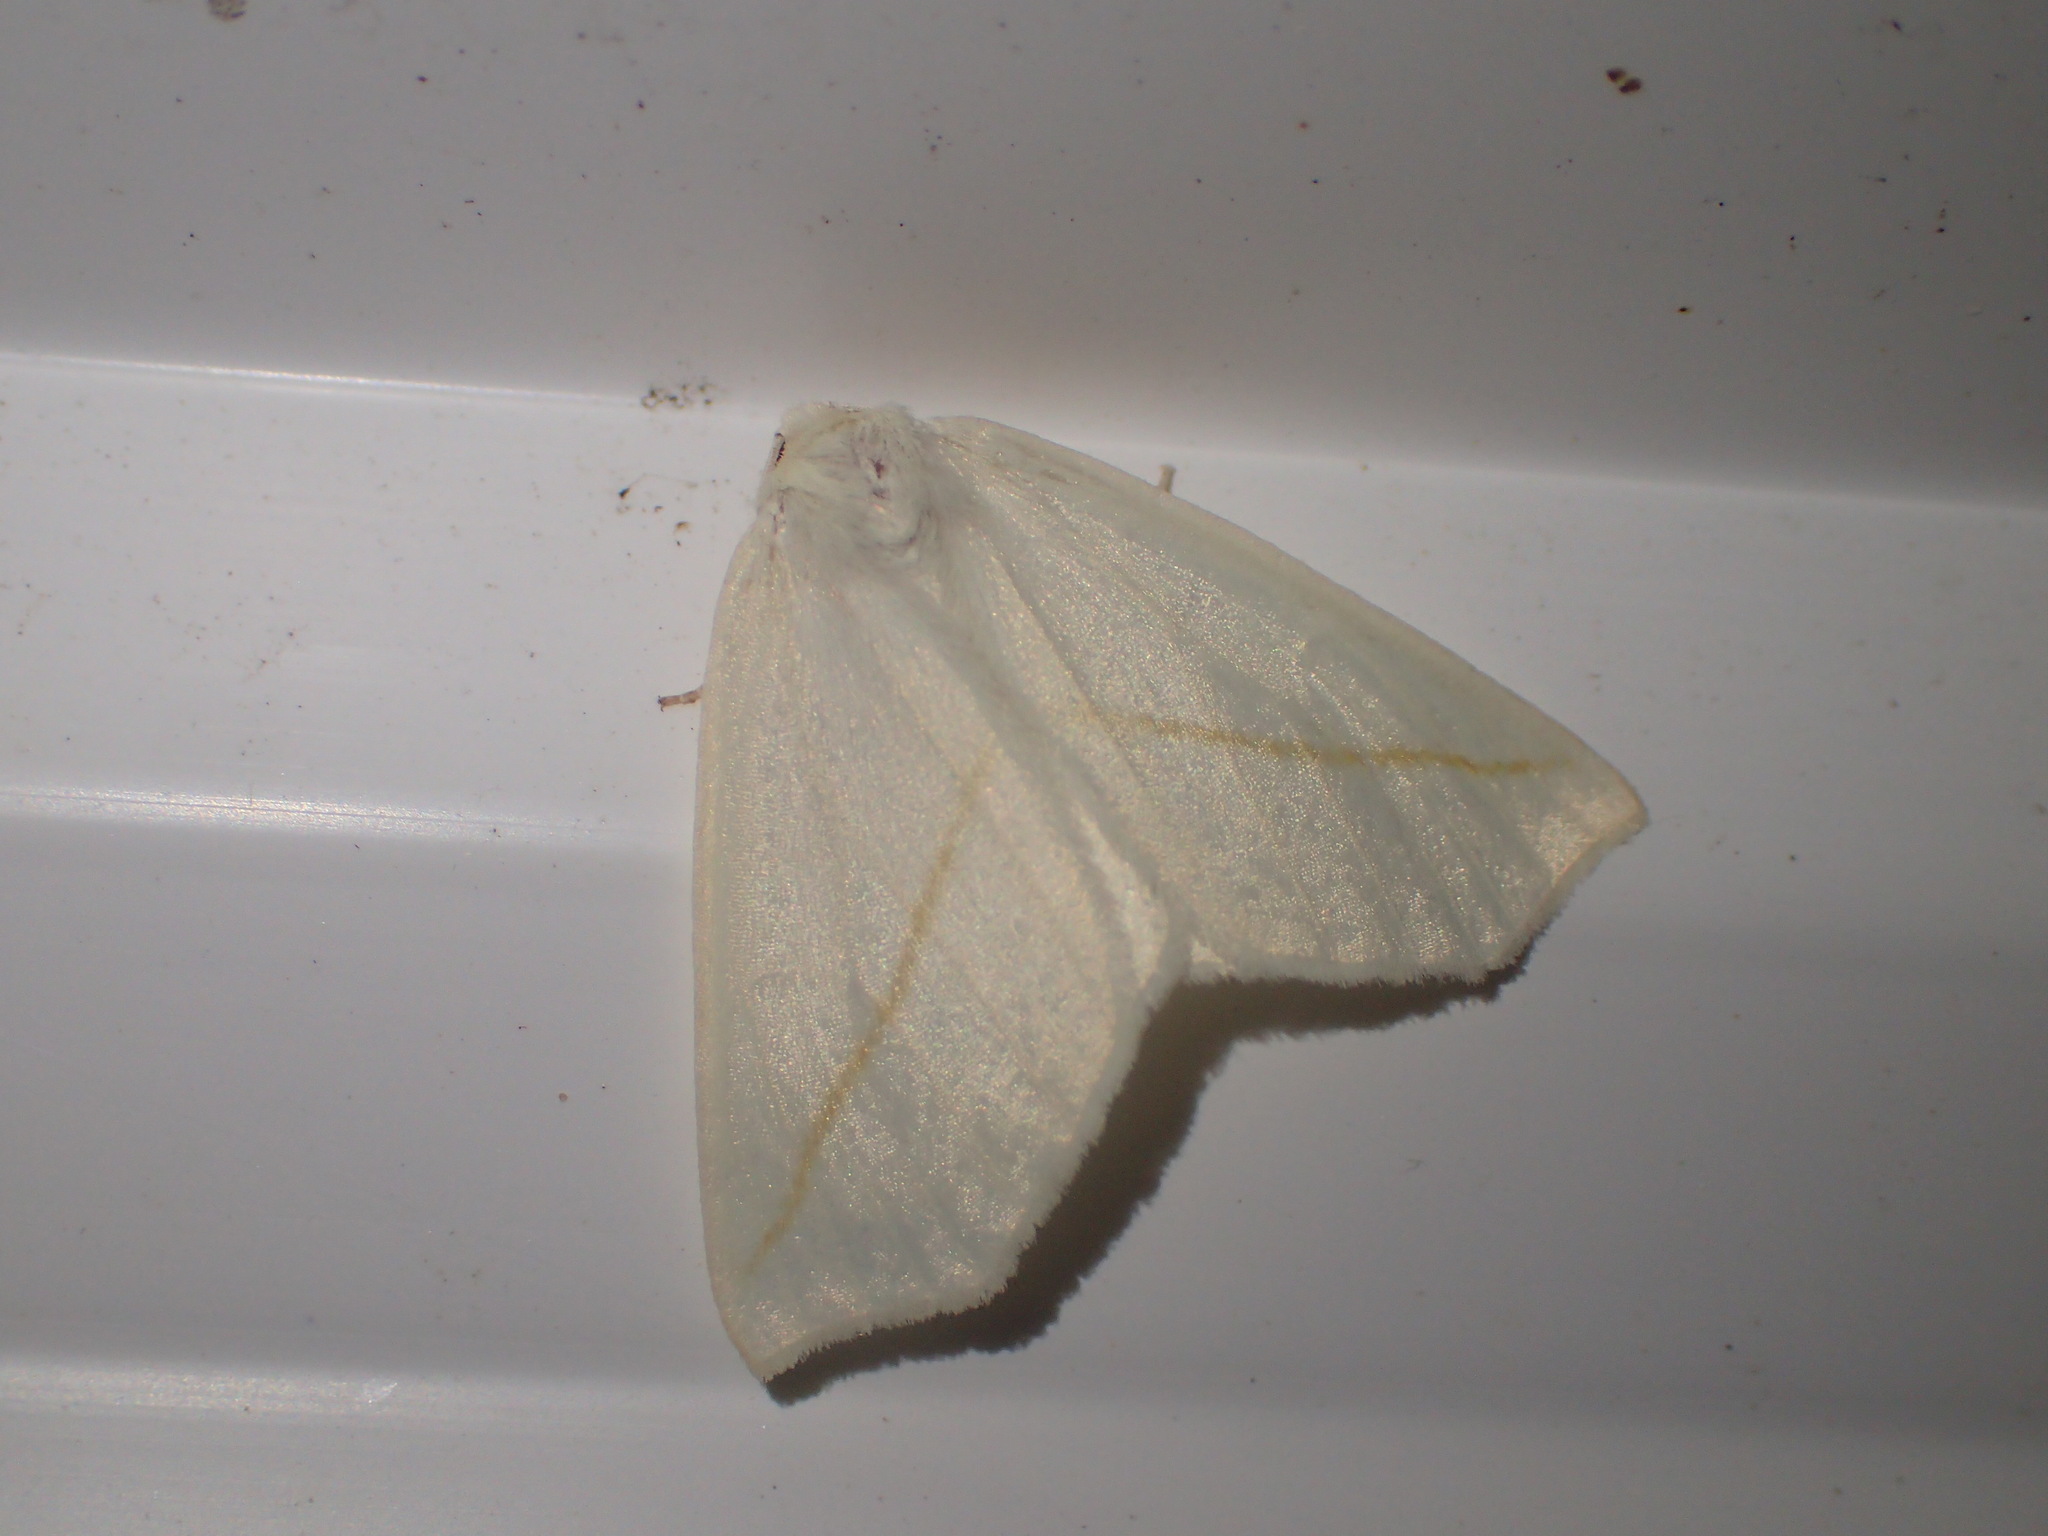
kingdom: Animalia
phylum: Arthropoda
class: Insecta
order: Lepidoptera
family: Geometridae
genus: Campaea
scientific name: Campaea perlata
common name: Fringed looper
